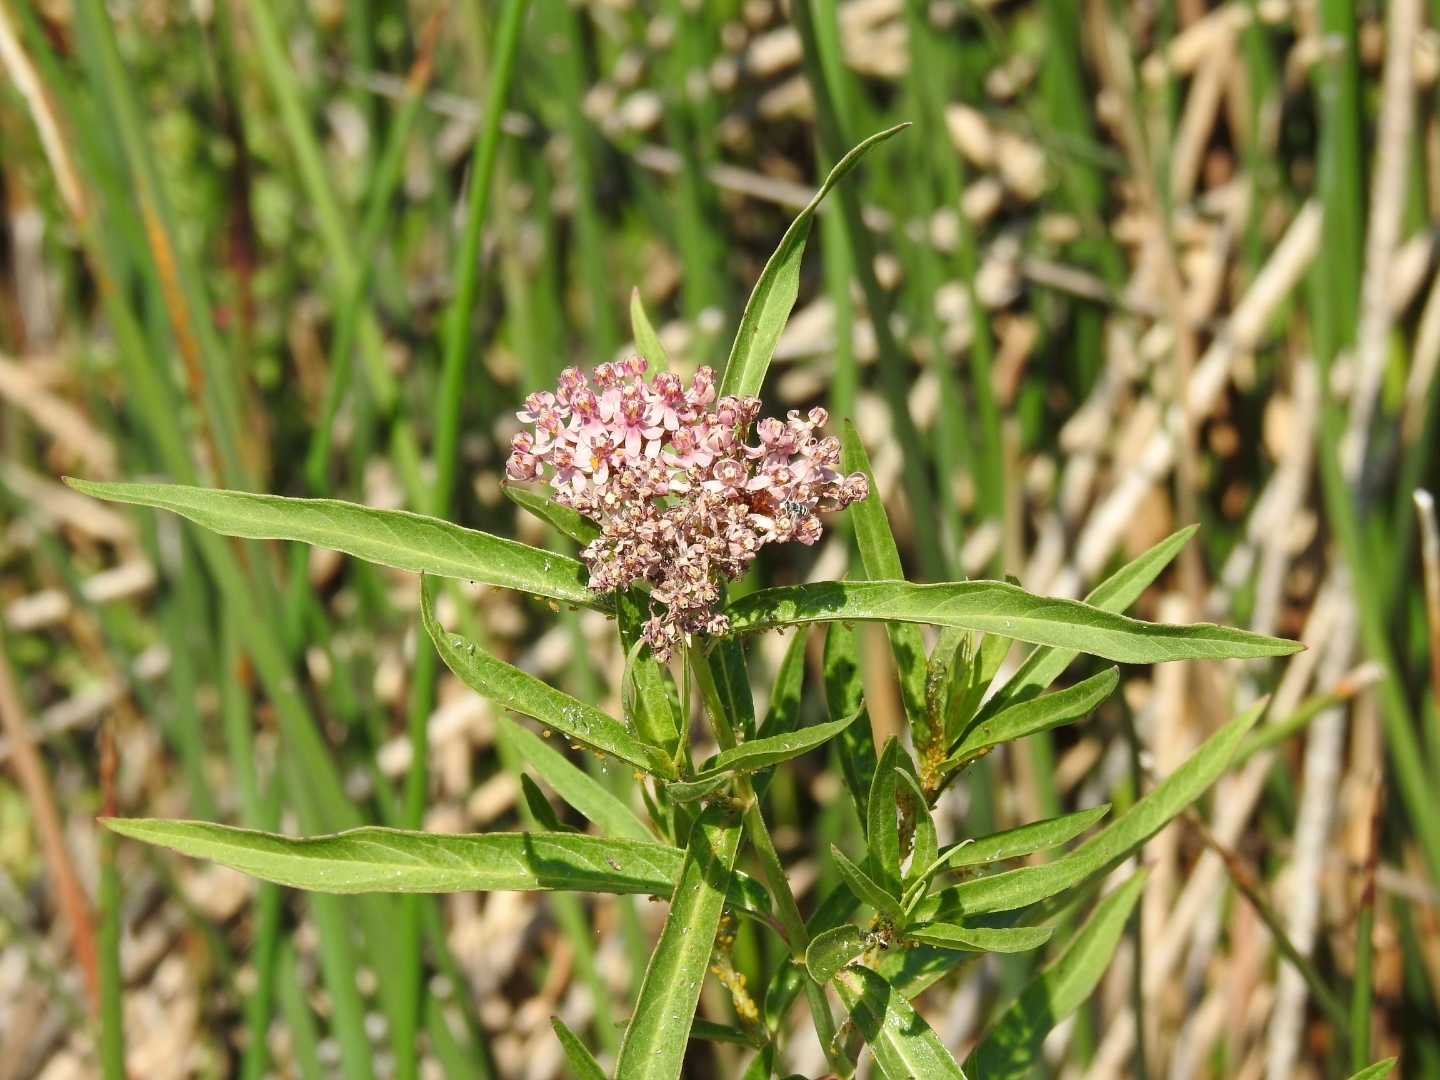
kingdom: Plantae
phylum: Tracheophyta
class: Magnoliopsida
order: Gentianales
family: Apocynaceae
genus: Asclepias
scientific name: Asclepias incarnata
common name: Swamp milkweed
